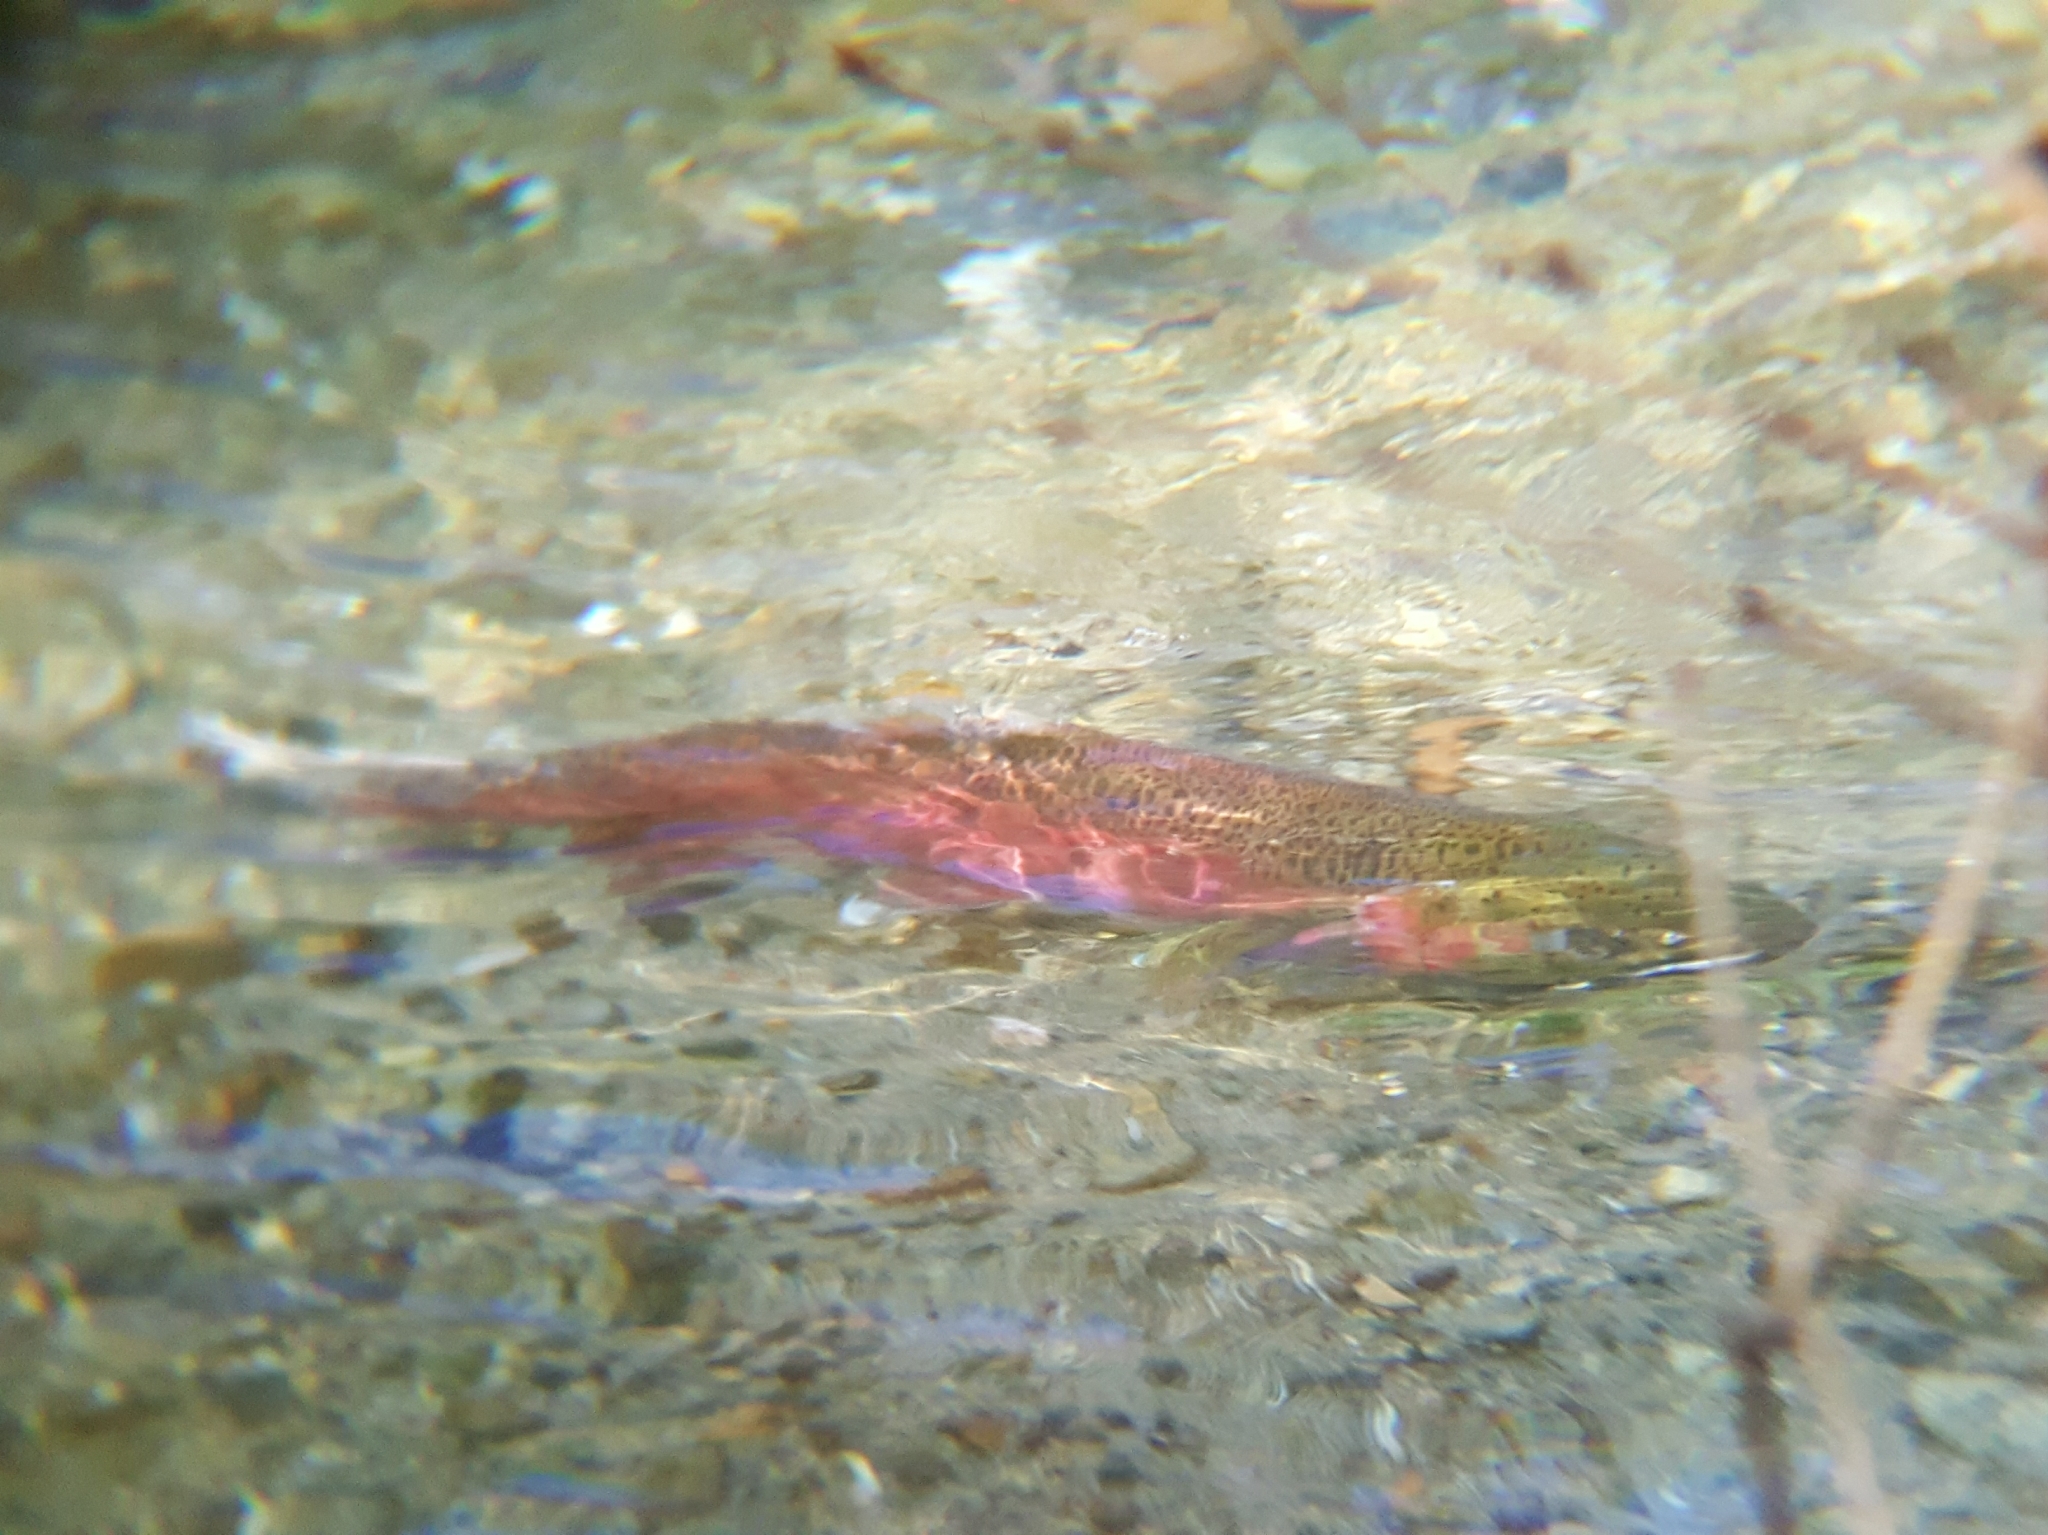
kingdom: Animalia
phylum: Chordata
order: Salmoniformes
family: Salmonidae
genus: Oncorhynchus
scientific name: Oncorhynchus kisutch
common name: Coho salmon
